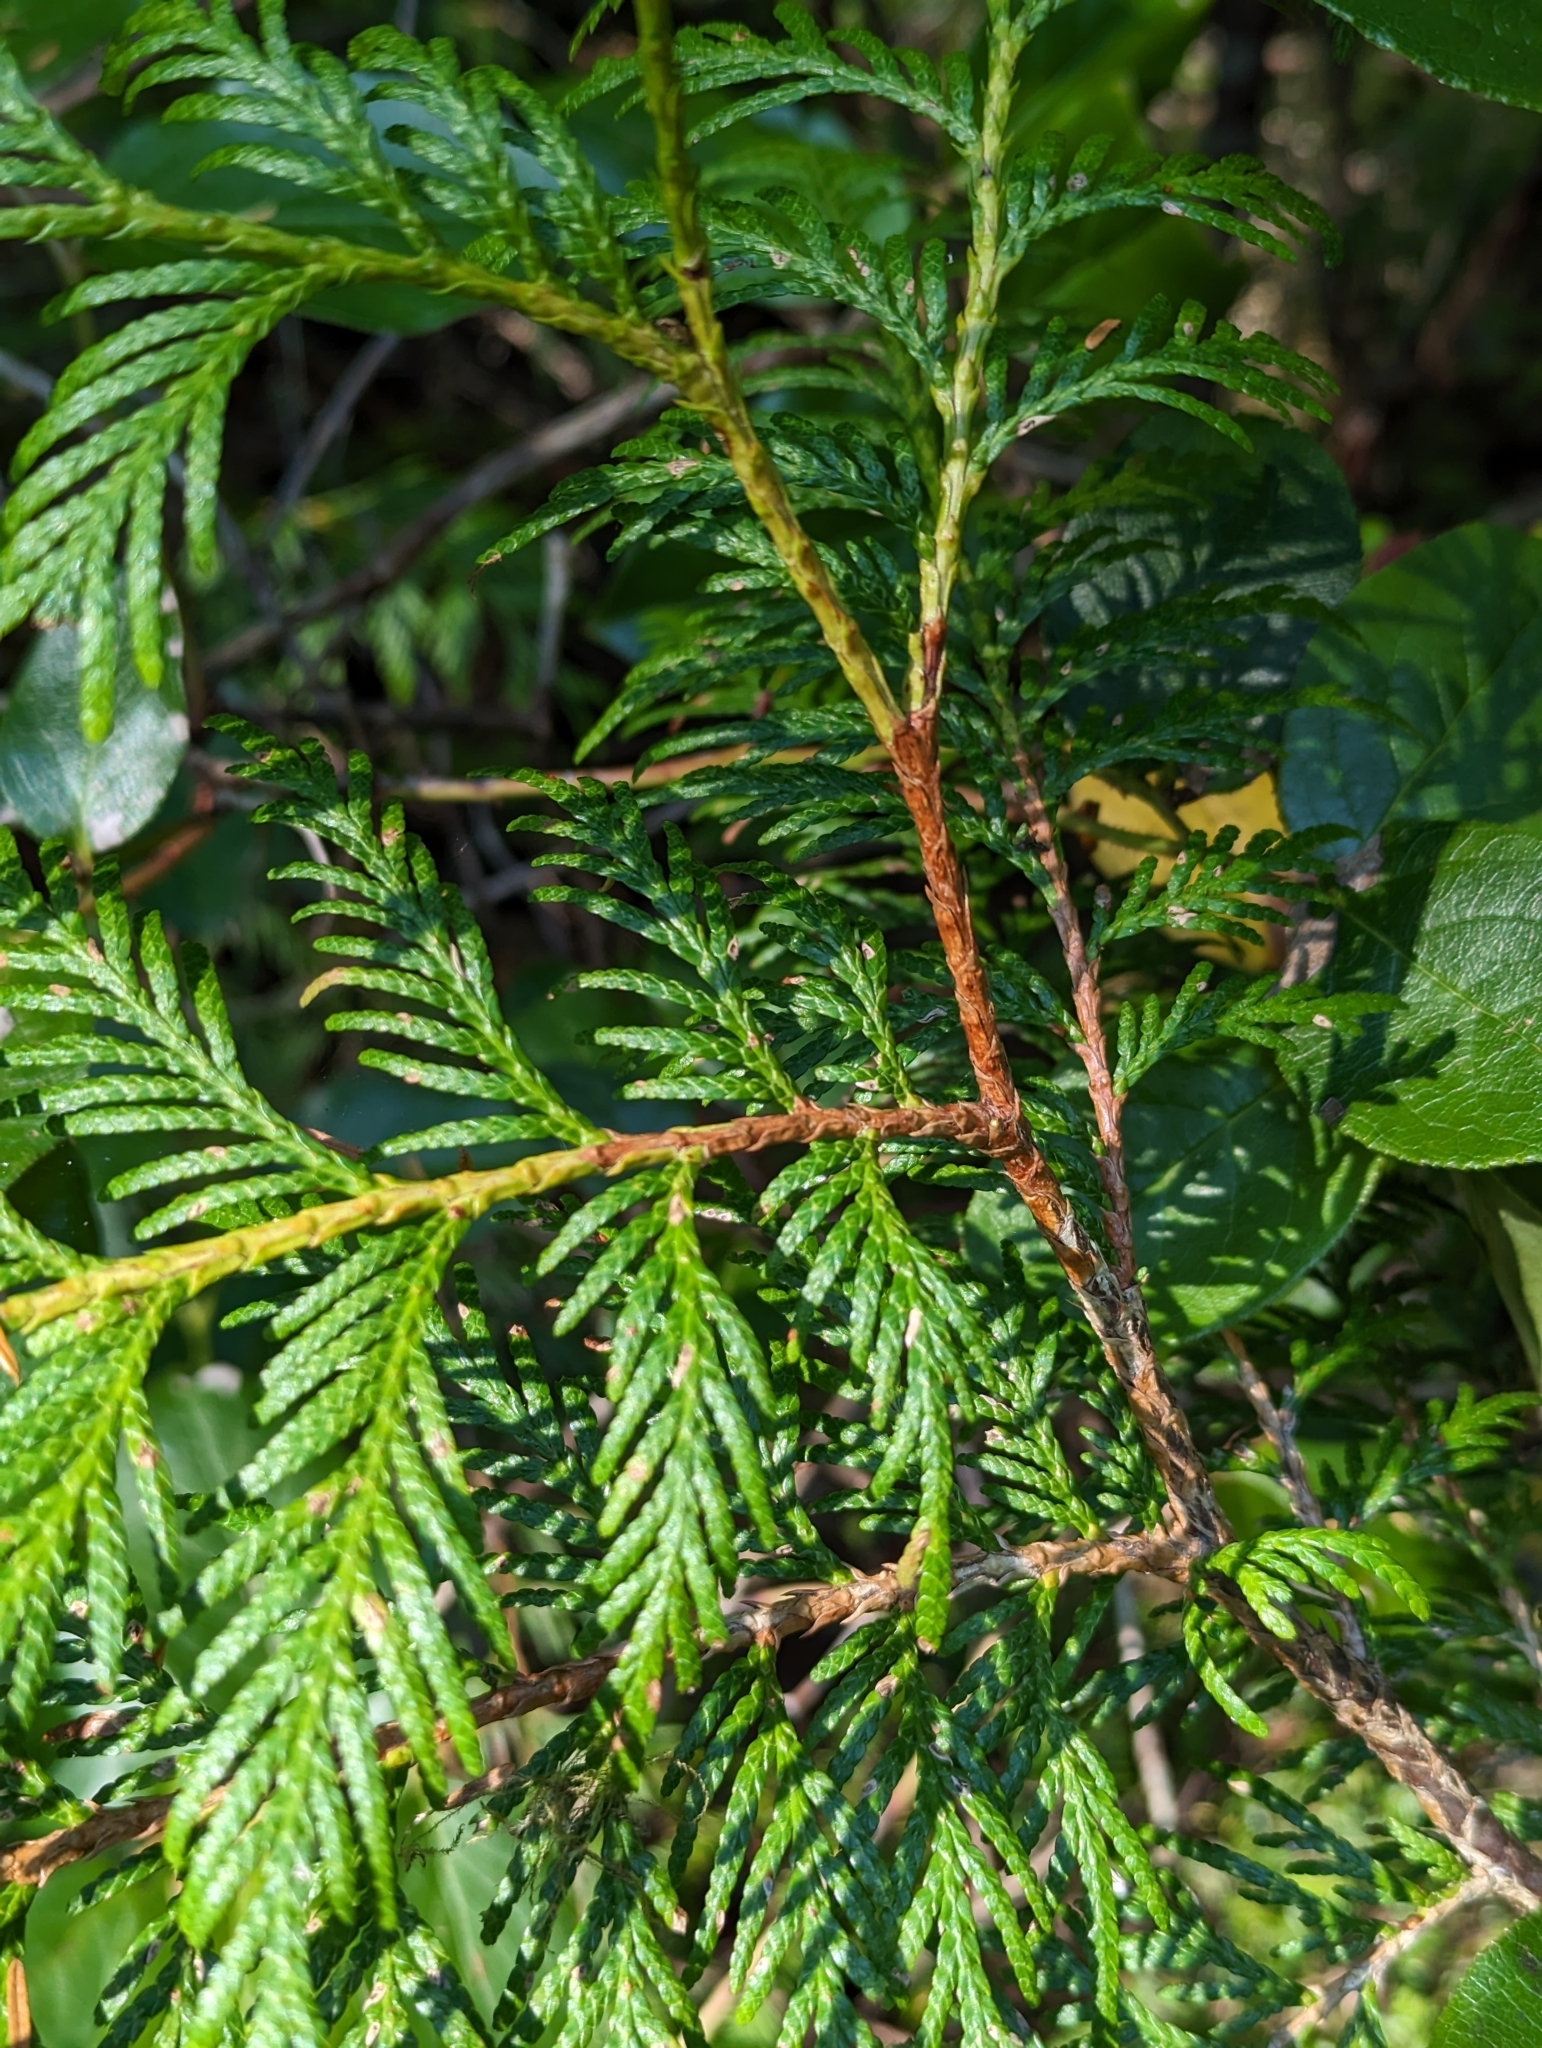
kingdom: Plantae
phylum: Tracheophyta
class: Pinopsida
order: Pinales
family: Cupressaceae
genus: Thuja
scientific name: Thuja plicata
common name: Western red-cedar
